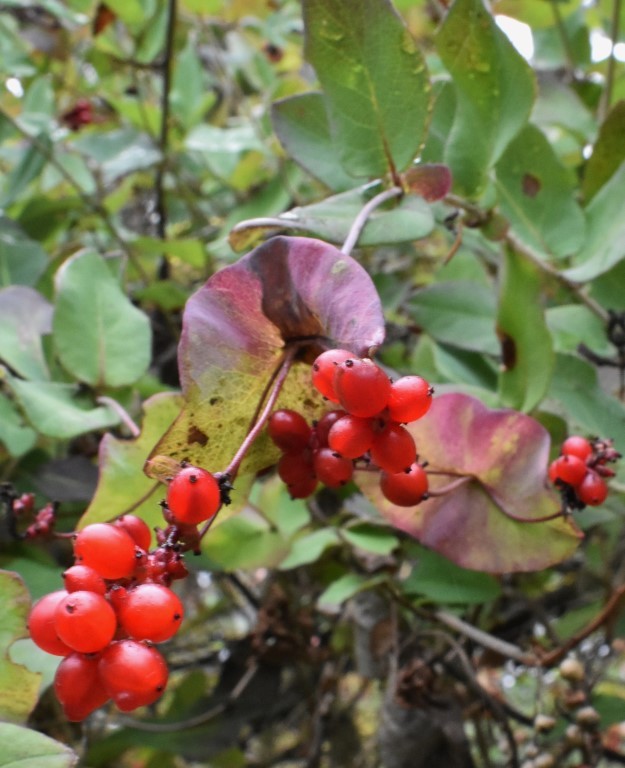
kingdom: Plantae
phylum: Tracheophyta
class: Magnoliopsida
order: Dipsacales
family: Caprifoliaceae
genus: Lonicera
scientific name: Lonicera hispidula
